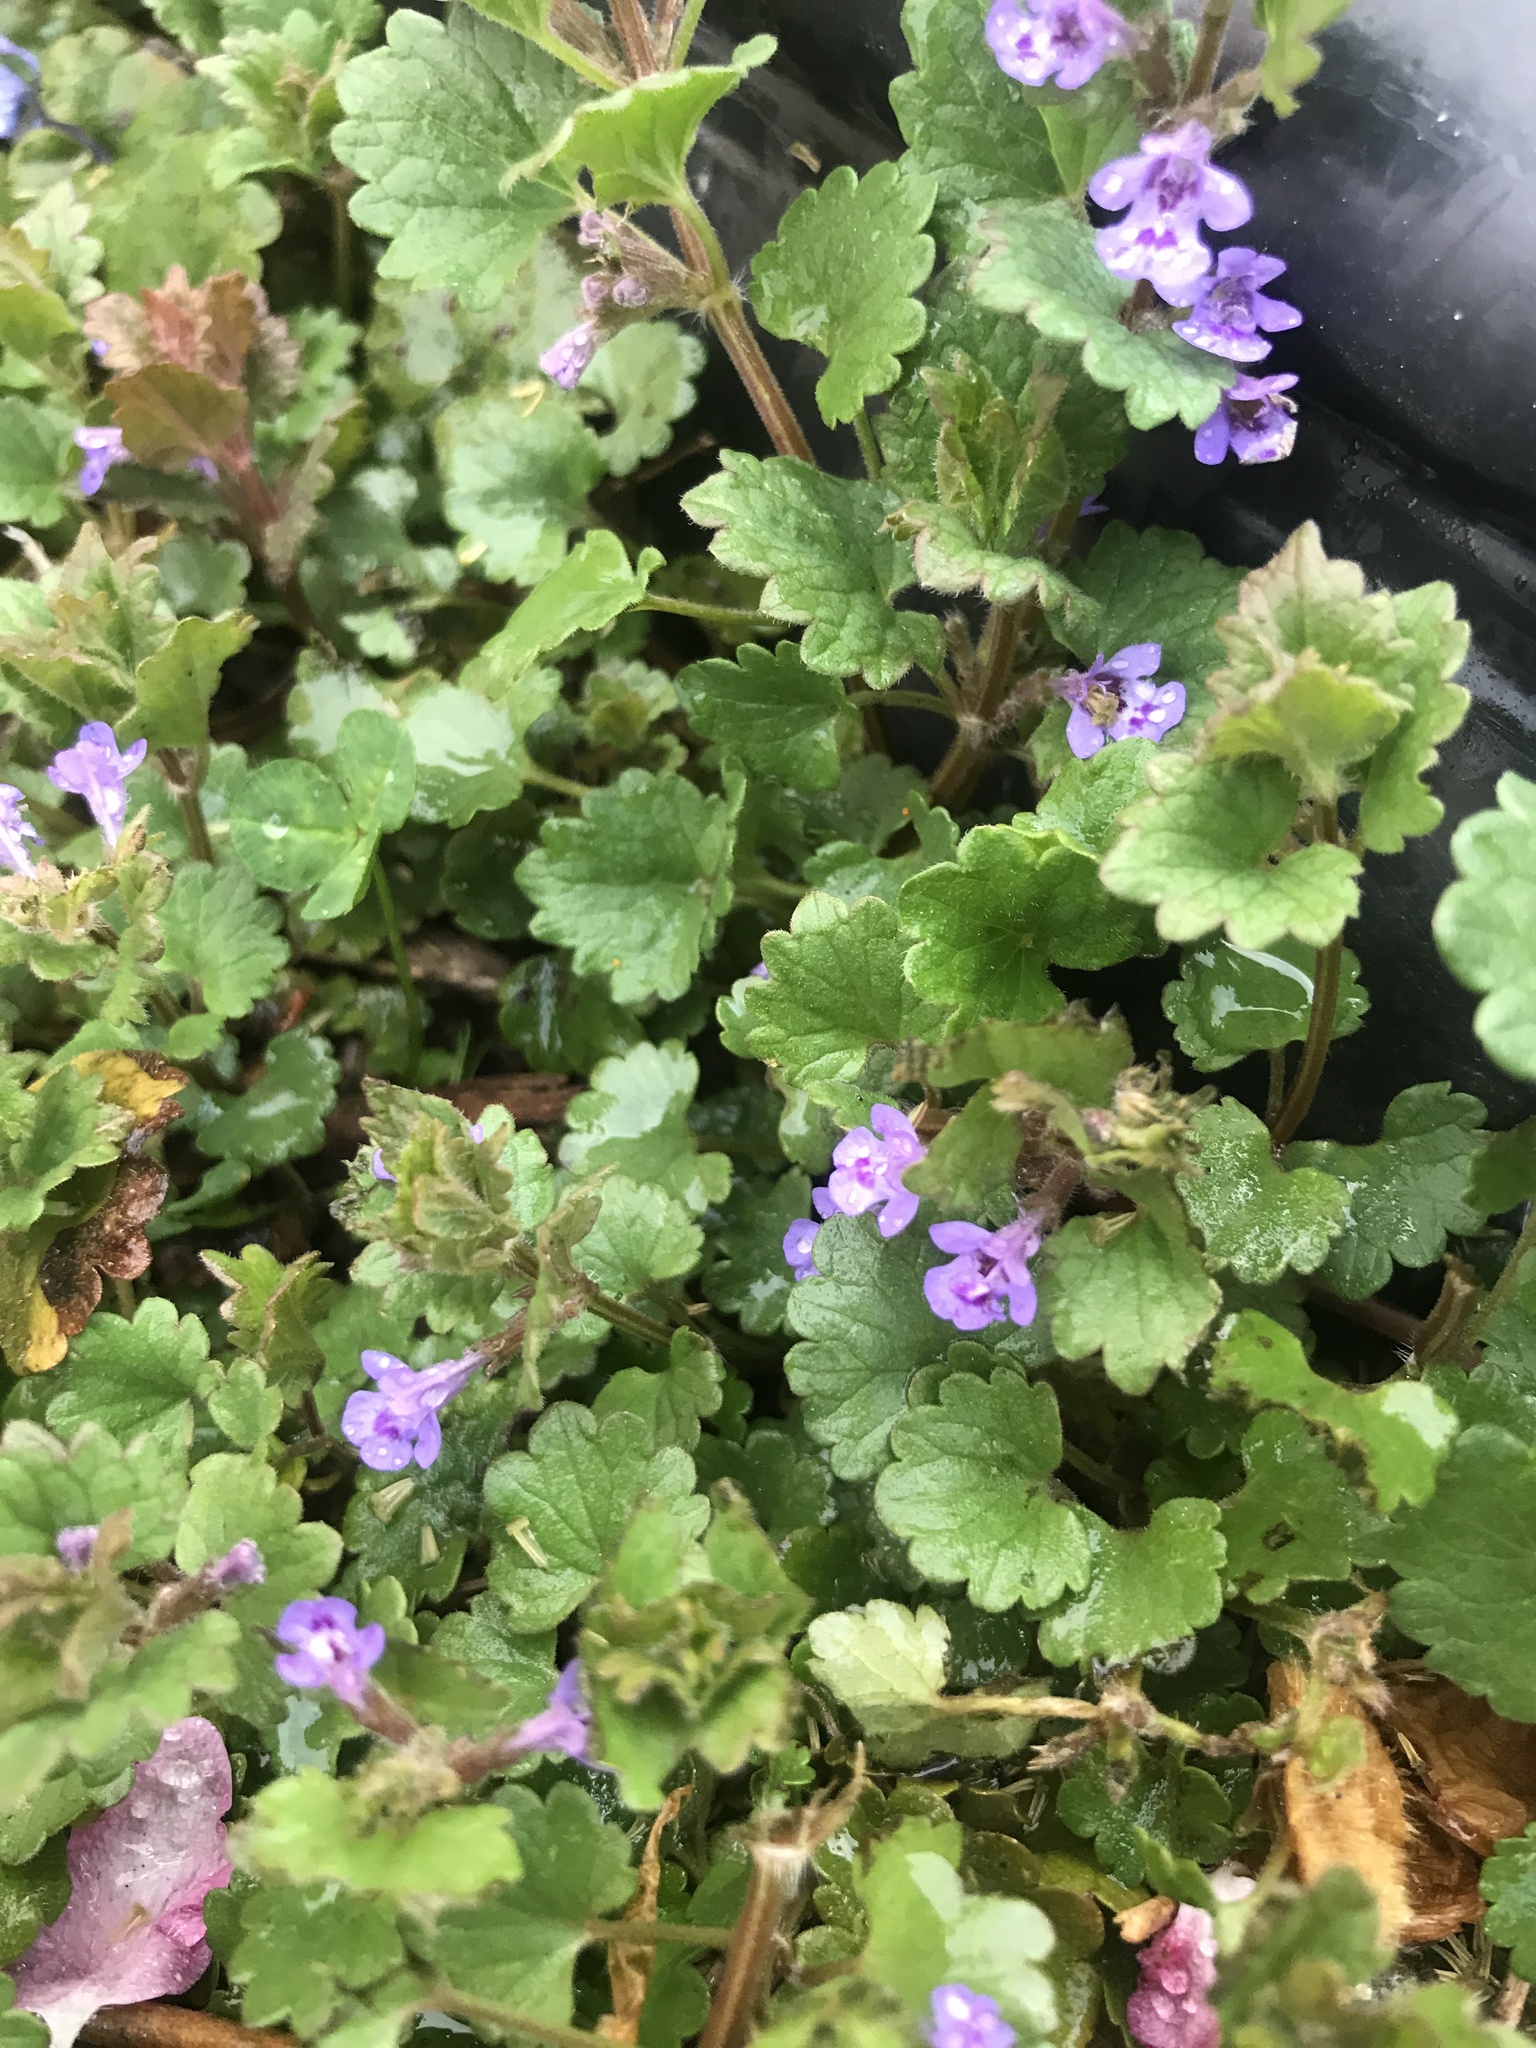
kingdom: Plantae
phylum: Tracheophyta
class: Magnoliopsida
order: Lamiales
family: Lamiaceae
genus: Glechoma
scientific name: Glechoma hederacea
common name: Ground ivy
